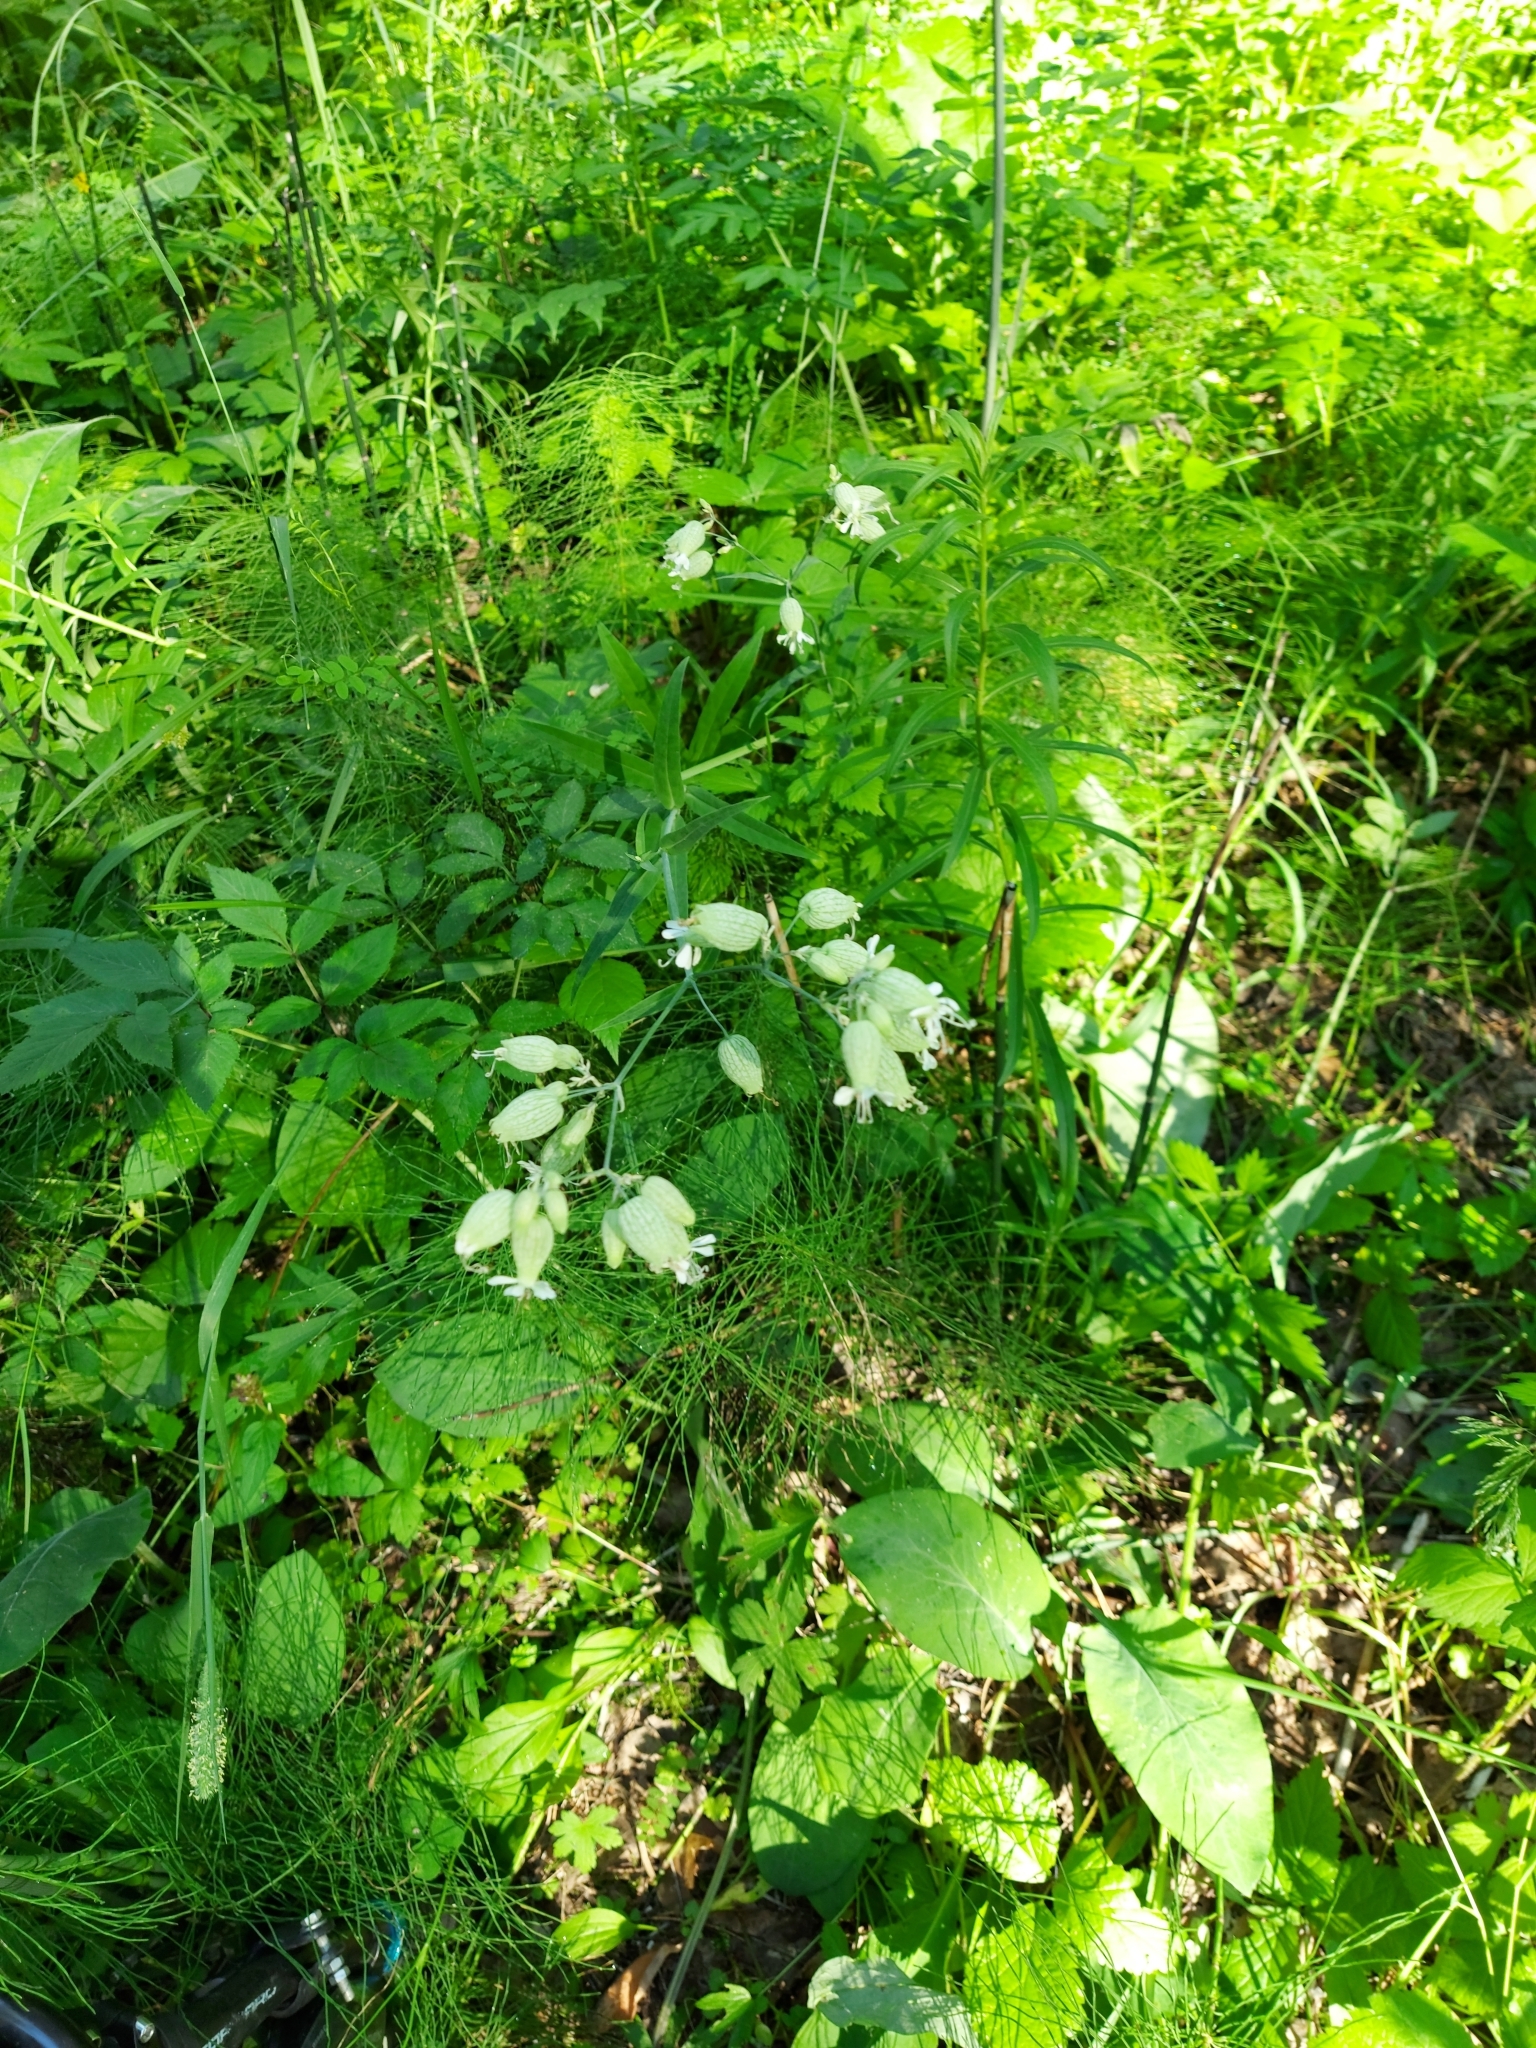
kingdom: Plantae
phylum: Tracheophyta
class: Magnoliopsida
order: Caryophyllales
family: Caryophyllaceae
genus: Silene
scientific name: Silene vulgaris
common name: Bladder campion
